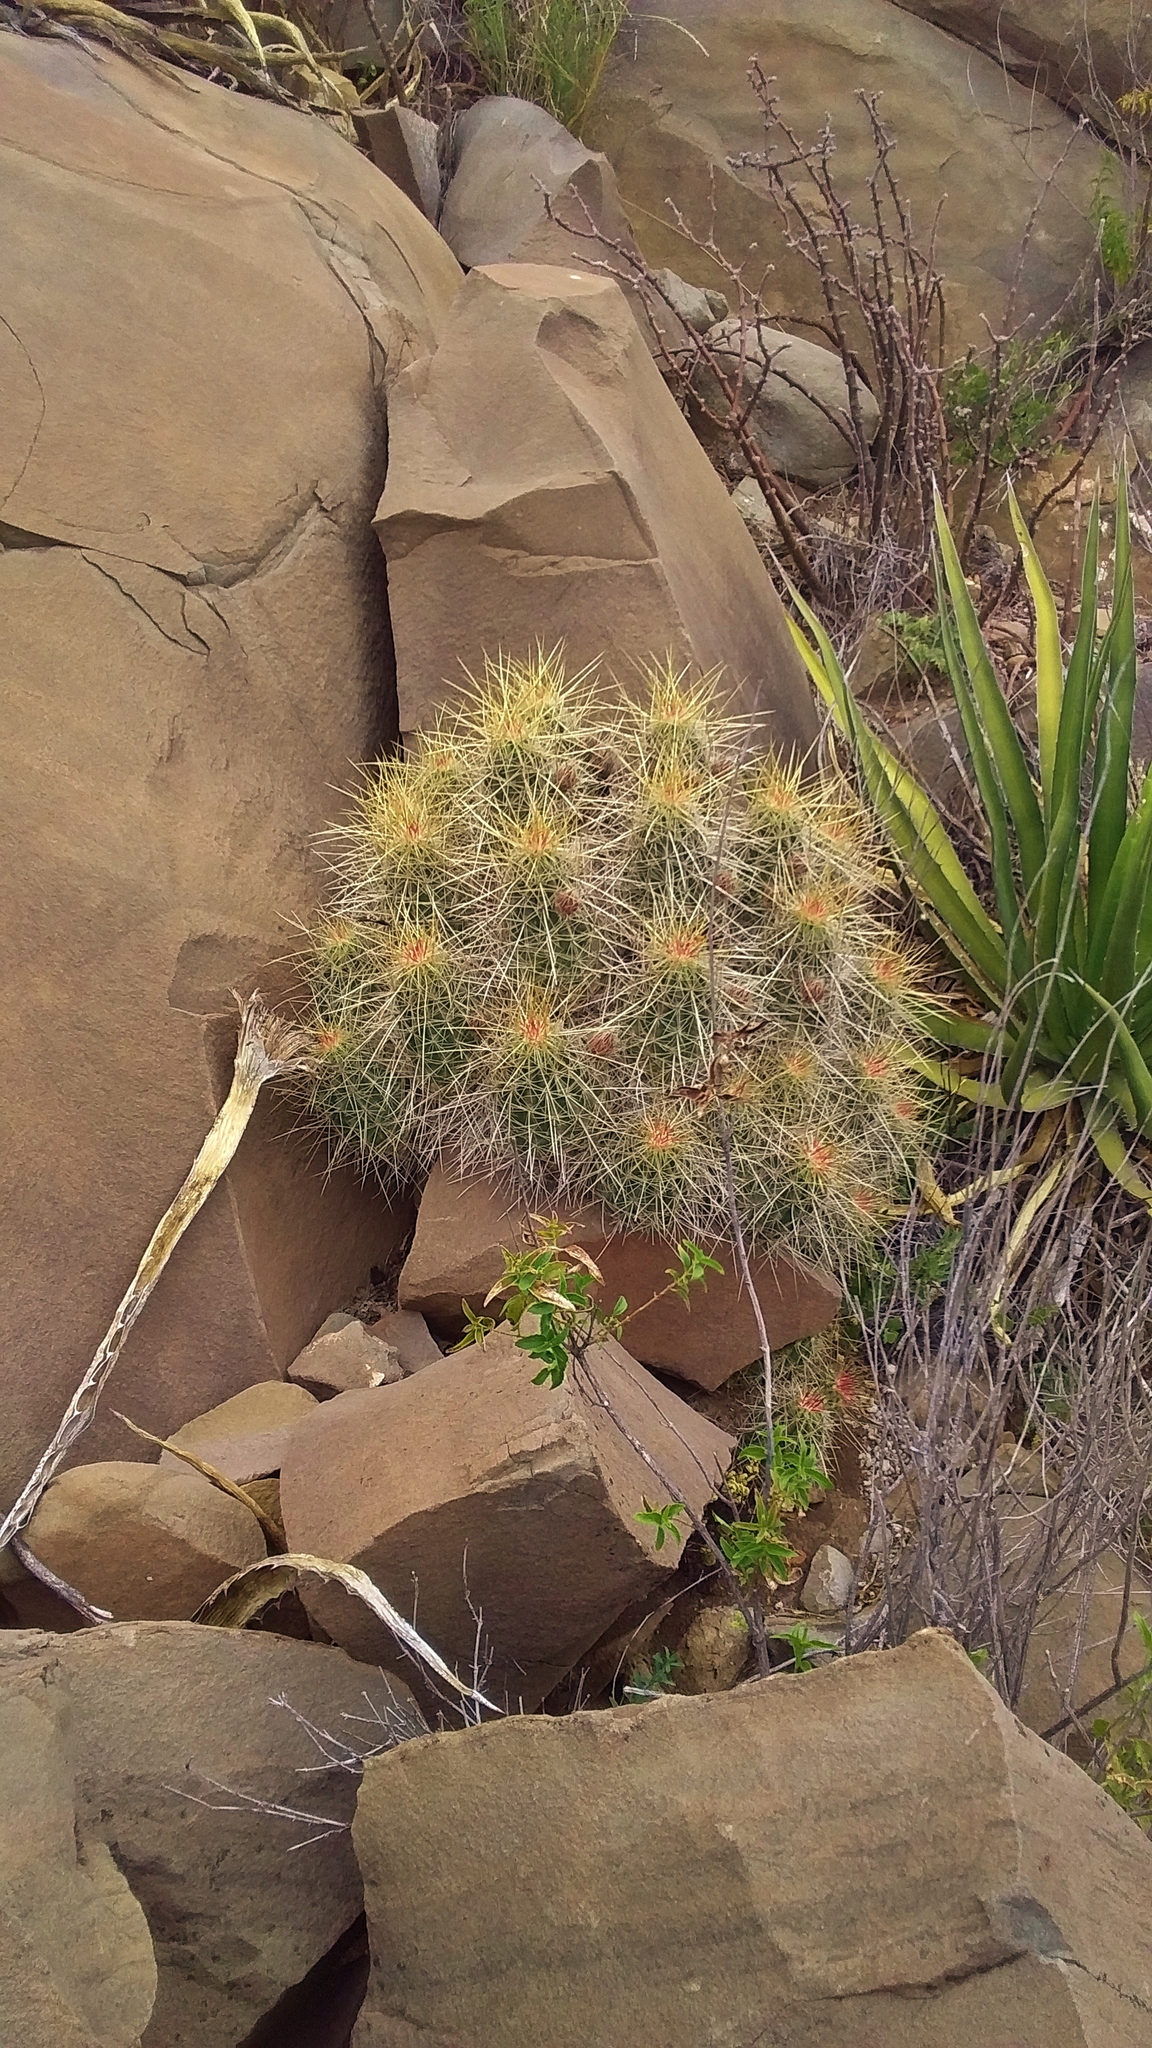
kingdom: Plantae
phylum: Tracheophyta
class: Magnoliopsida
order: Caryophyllales
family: Cactaceae
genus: Echinocereus
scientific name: Echinocereus stramineus
